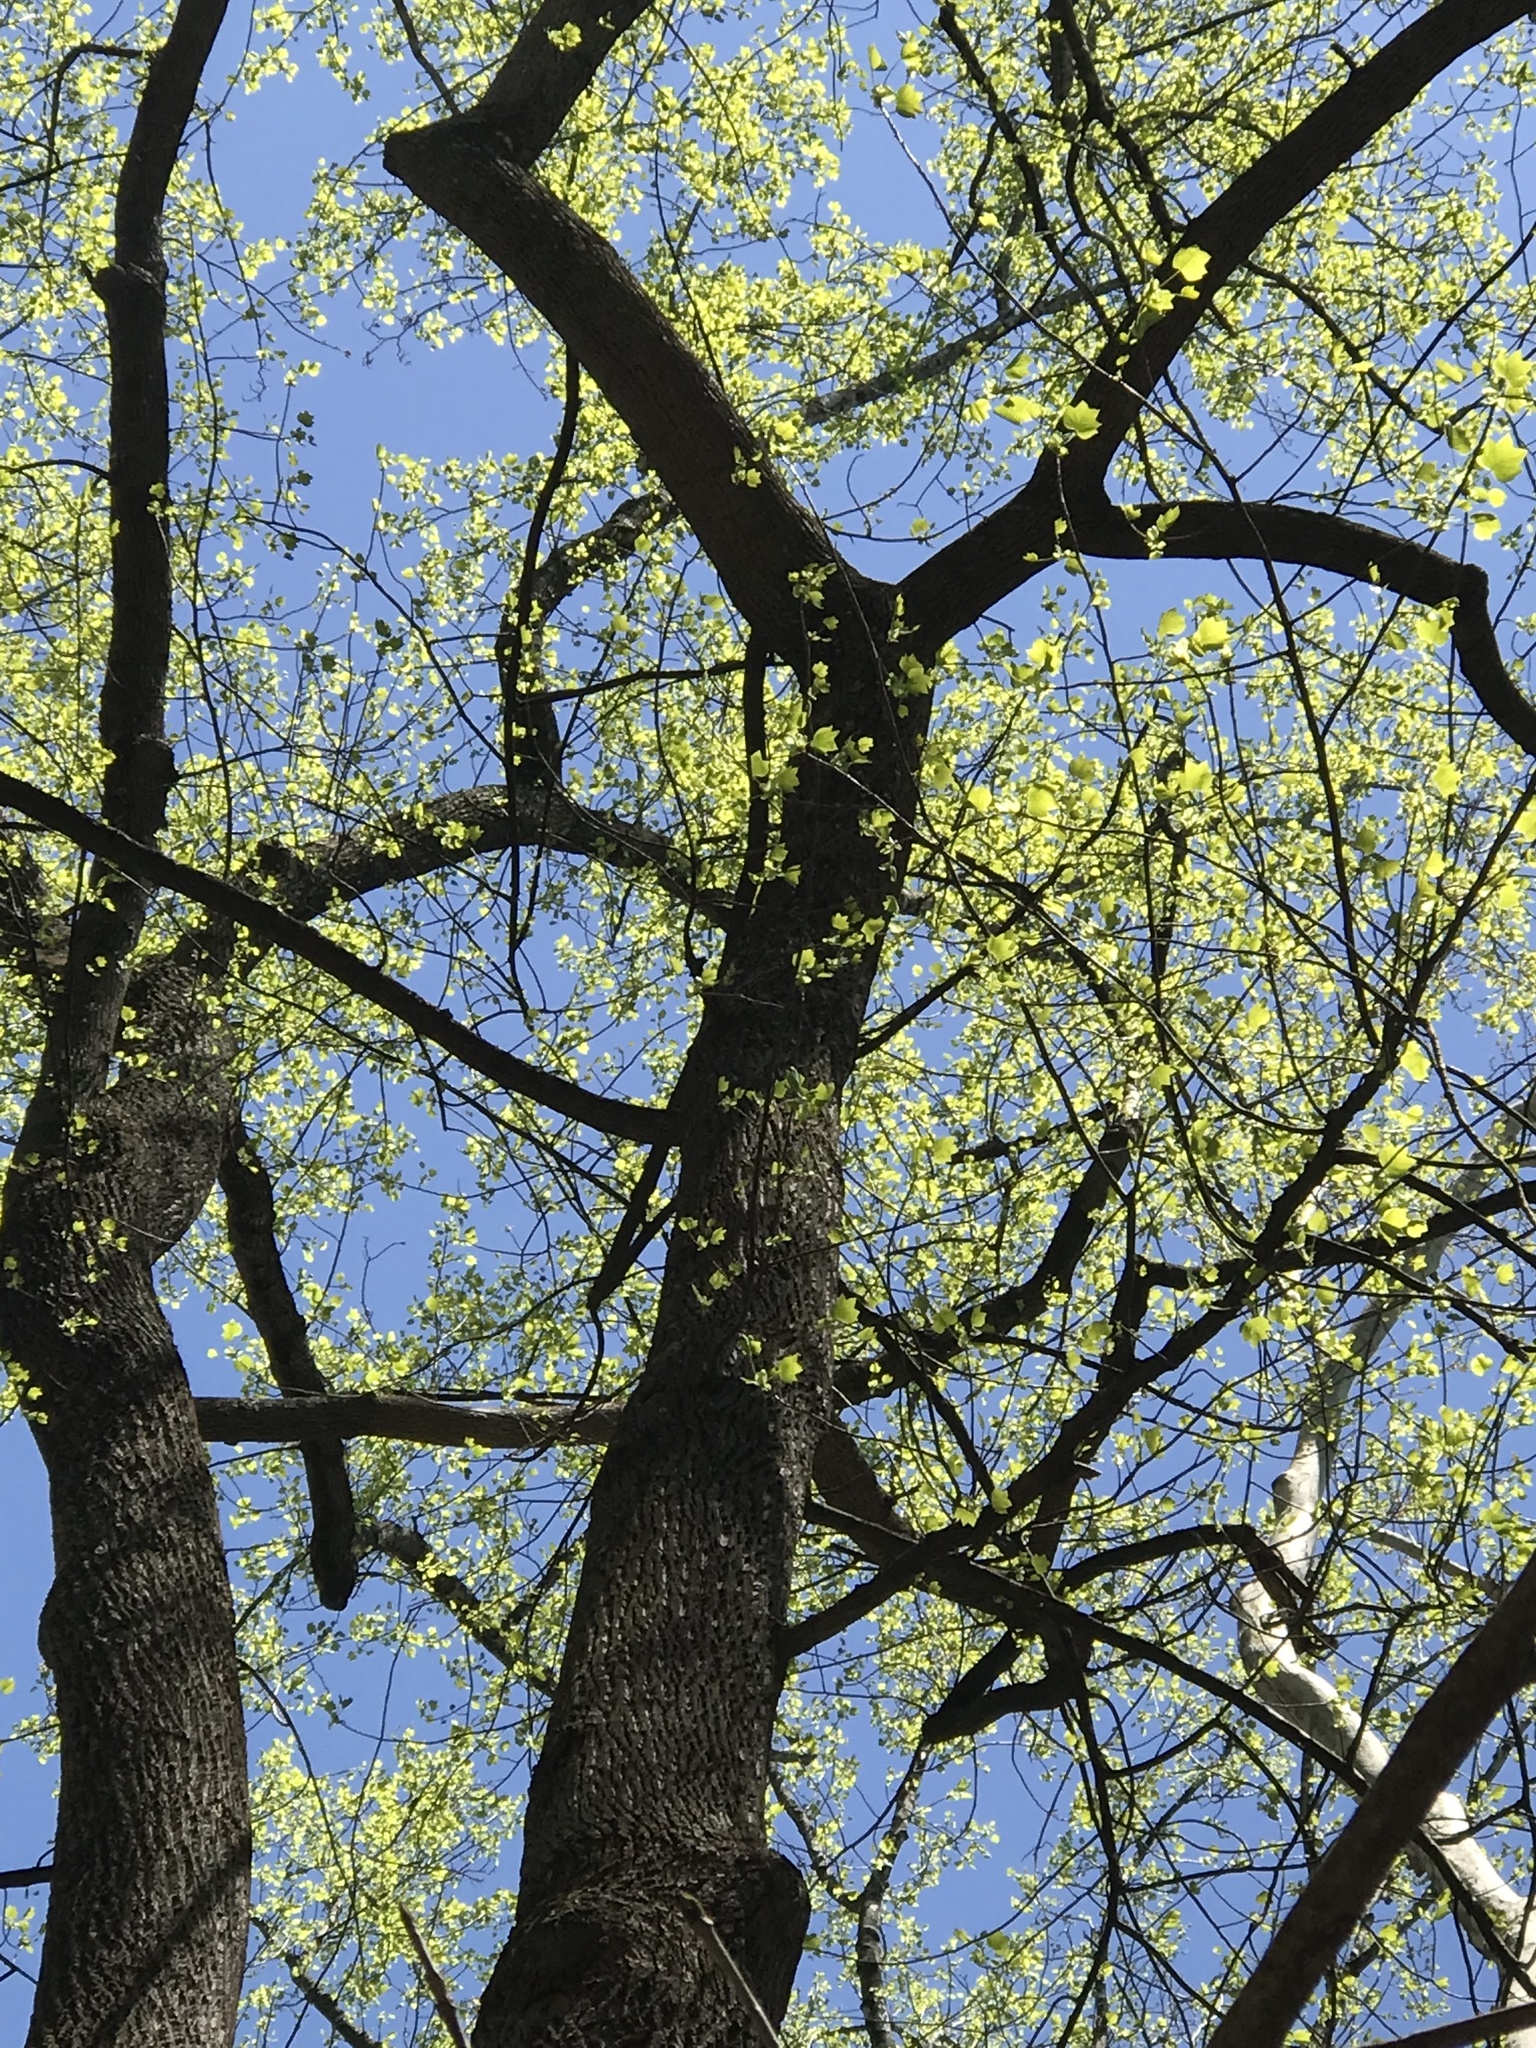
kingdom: Plantae
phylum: Tracheophyta
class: Magnoliopsida
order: Magnoliales
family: Magnoliaceae
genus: Liriodendron
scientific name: Liriodendron tulipifera
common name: Tulip tree
